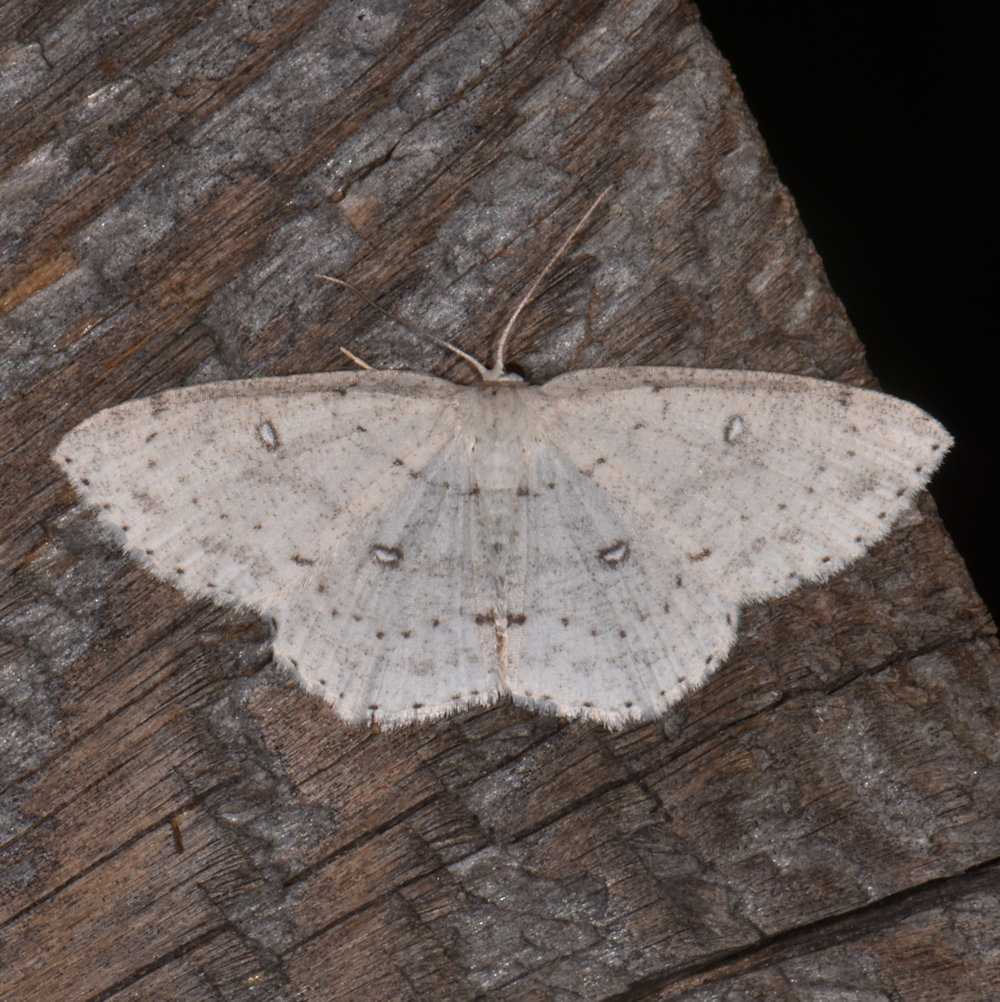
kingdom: Animalia
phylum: Arthropoda
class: Insecta
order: Lepidoptera
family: Geometridae
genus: Cyclophora
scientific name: Cyclophora pendulinaria
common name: Sweet fern geometer
